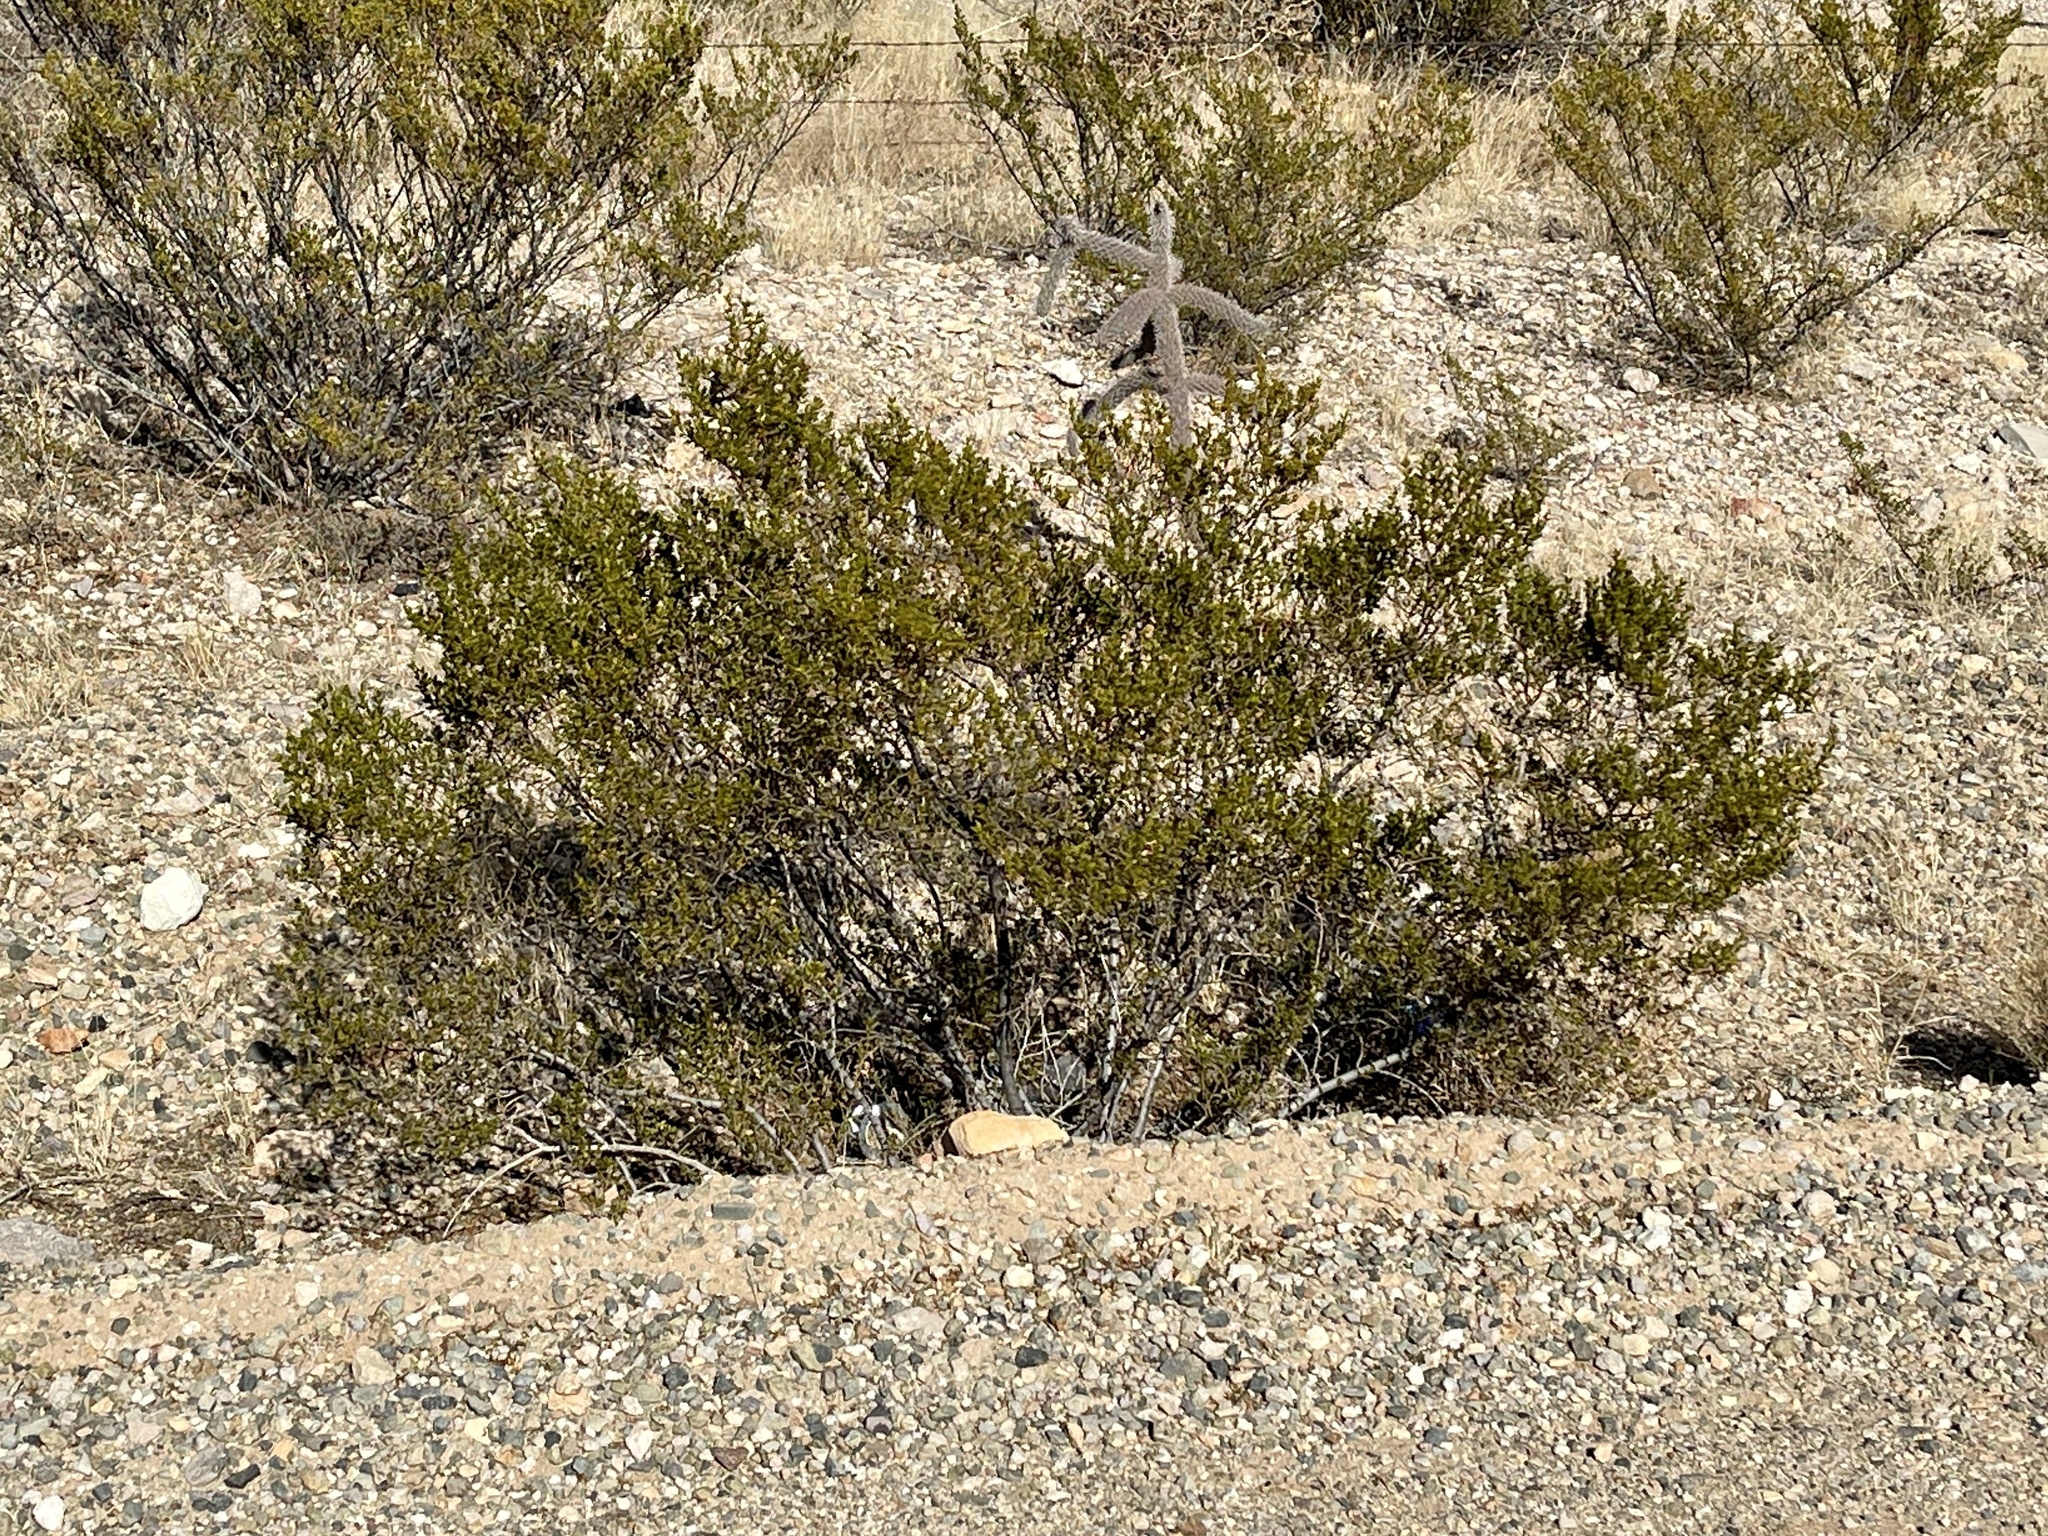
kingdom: Plantae
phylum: Tracheophyta
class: Magnoliopsida
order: Zygophyllales
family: Zygophyllaceae
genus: Larrea
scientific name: Larrea tridentata
